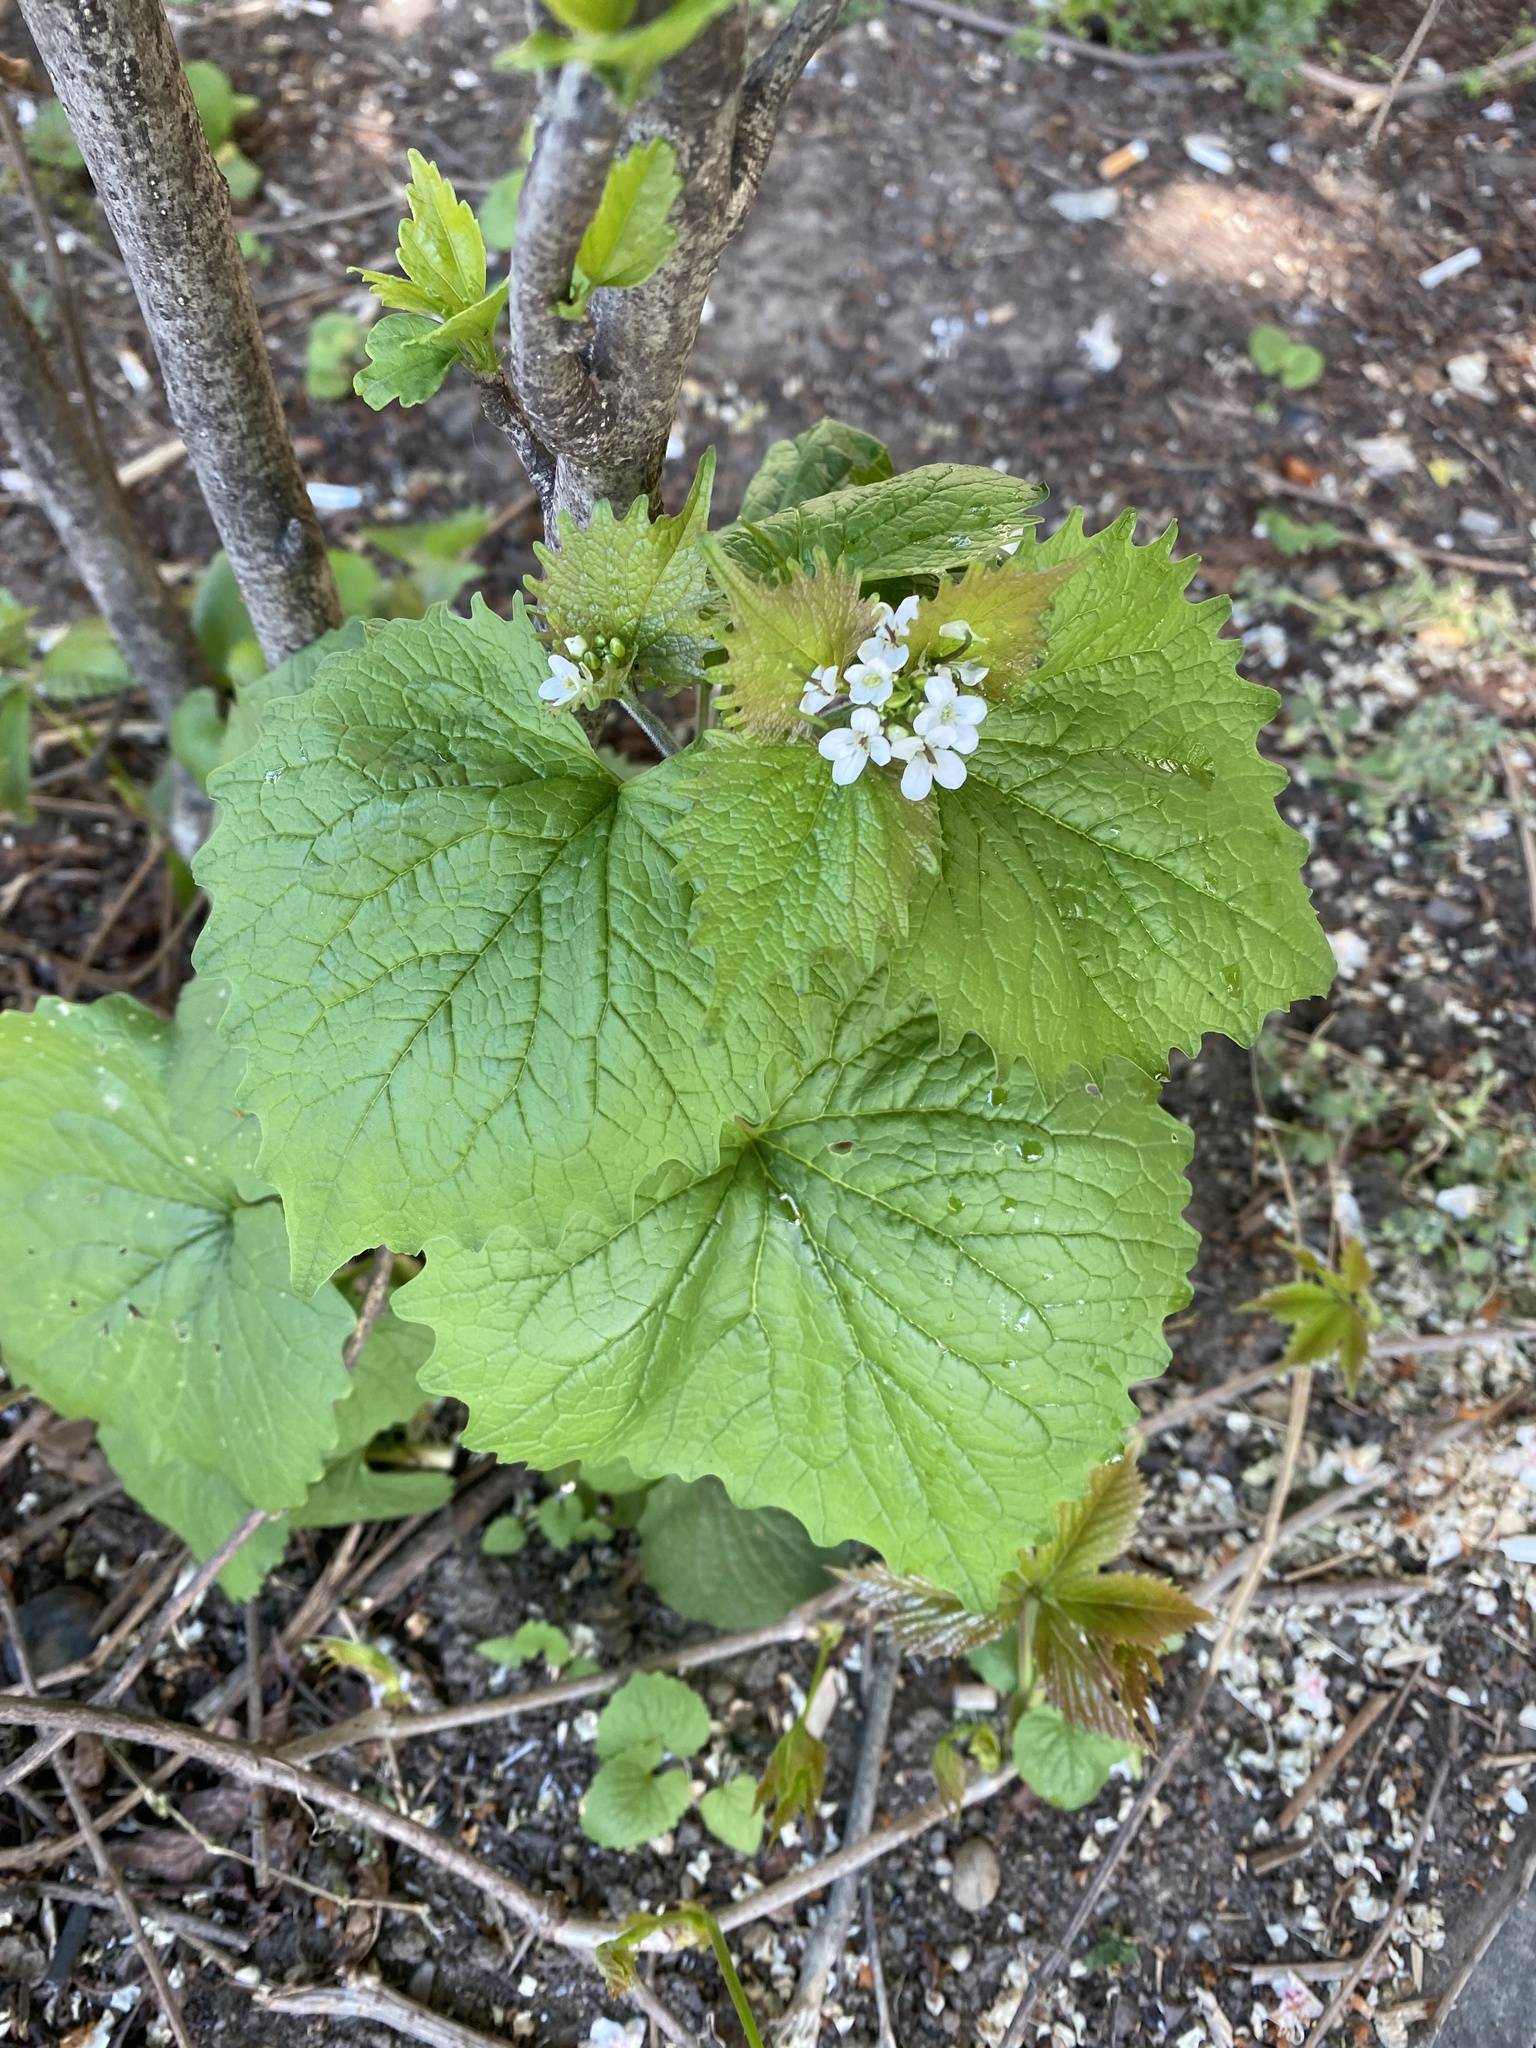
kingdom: Plantae
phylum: Tracheophyta
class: Magnoliopsida
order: Brassicales
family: Brassicaceae
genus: Alliaria
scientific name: Alliaria petiolata
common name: Garlic mustard
